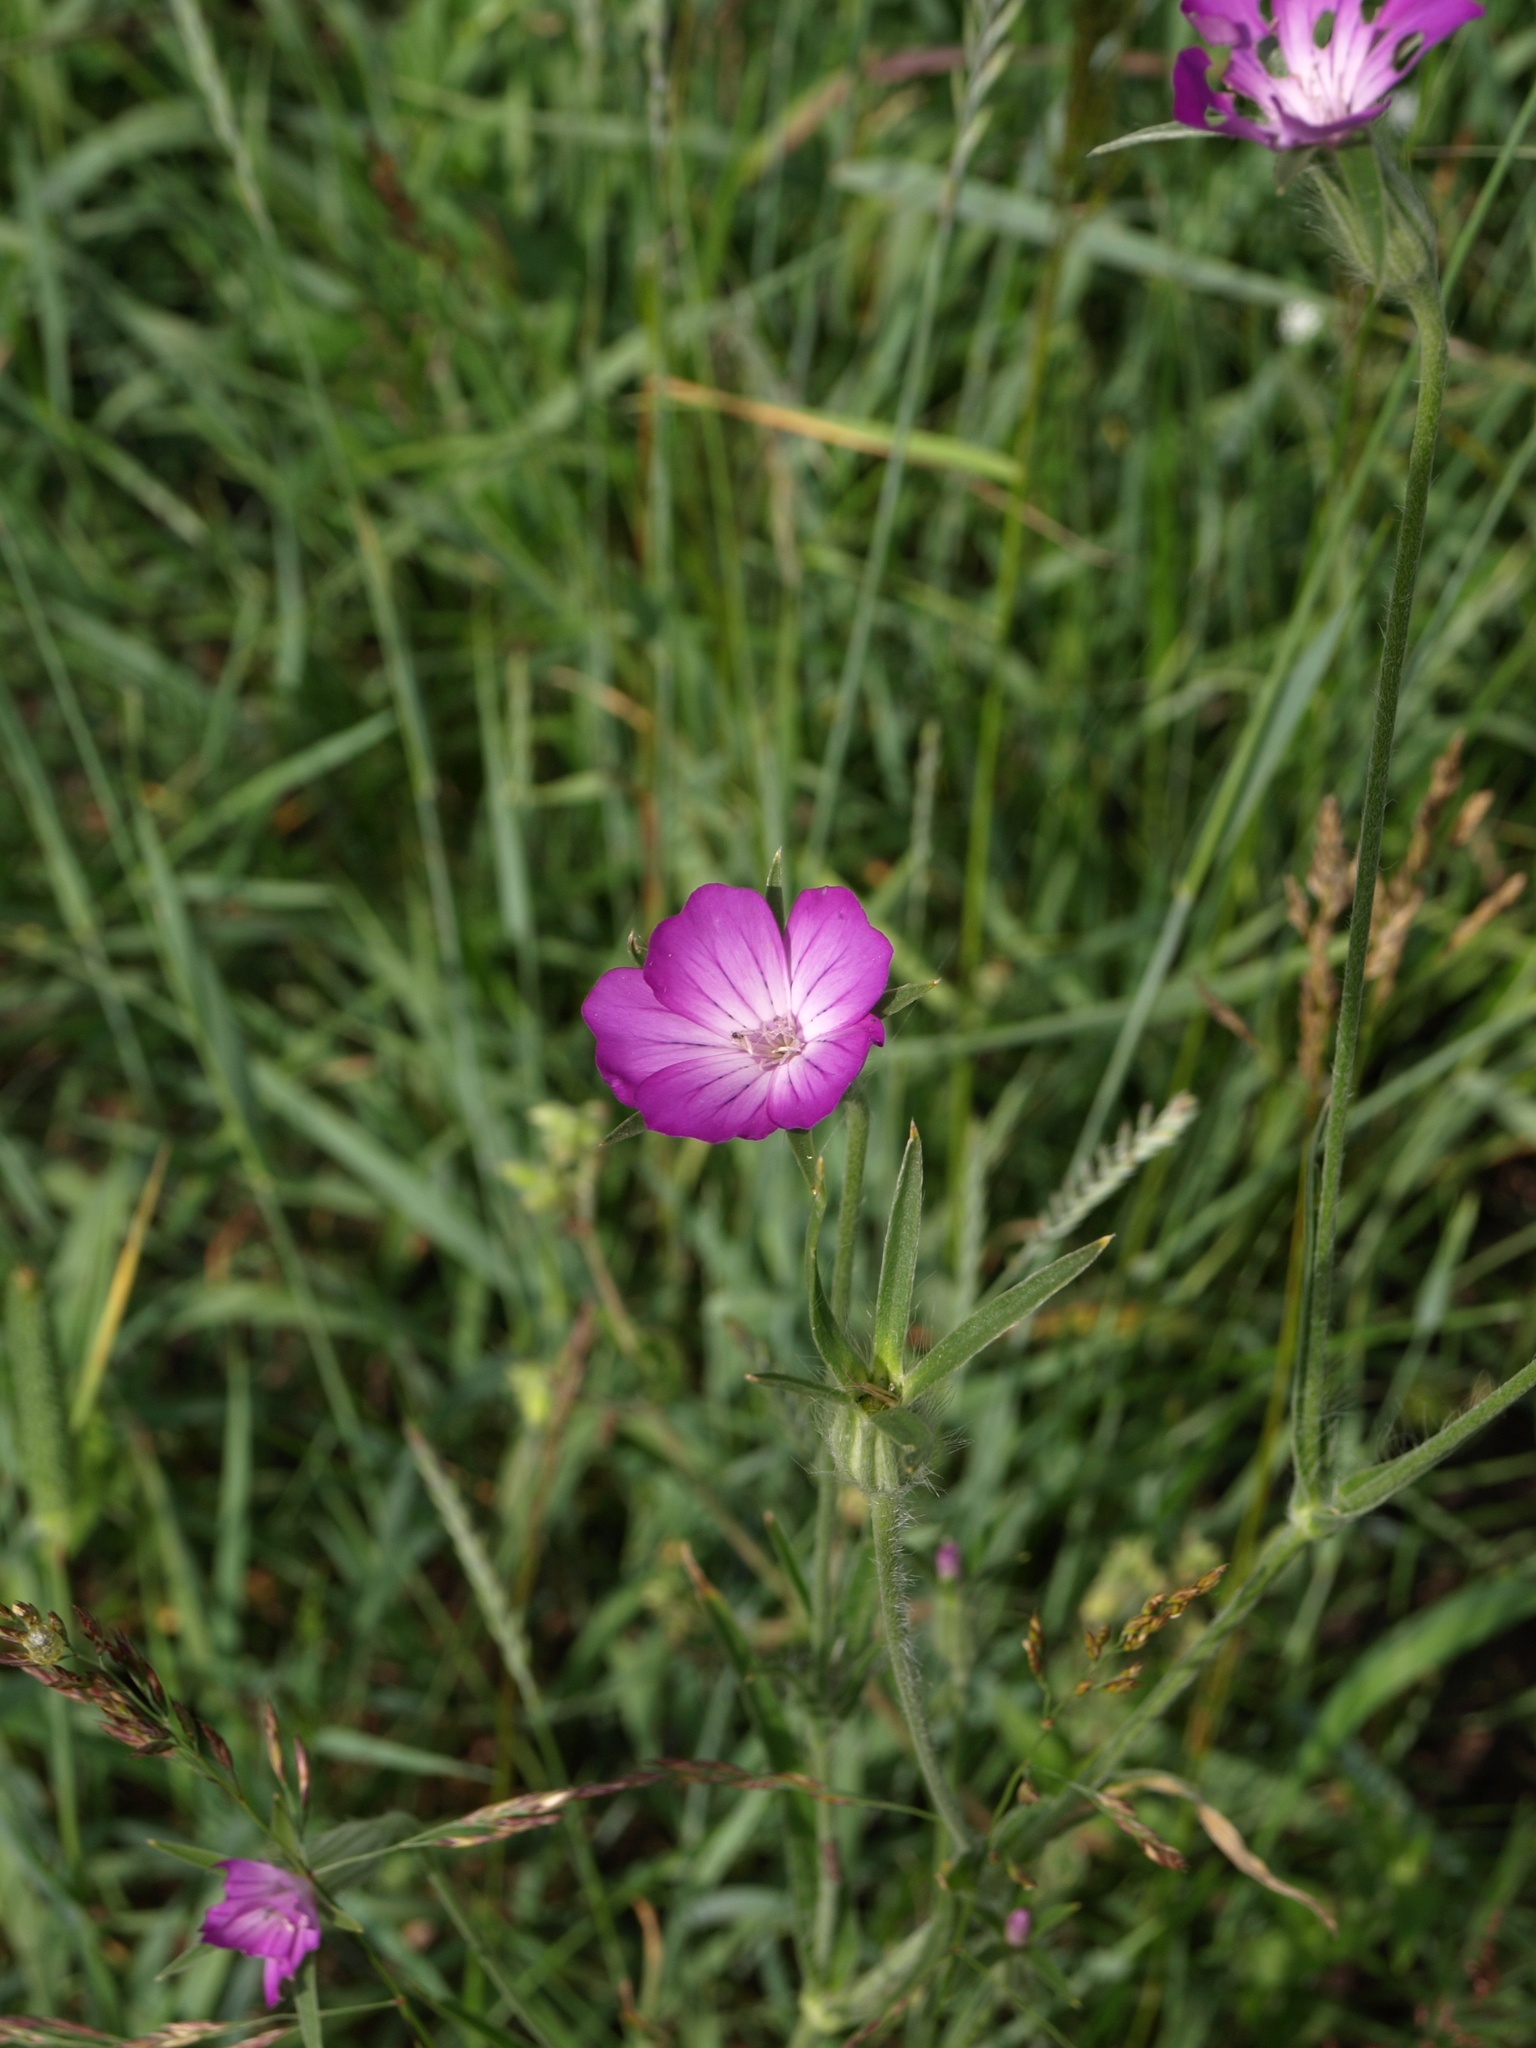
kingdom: Plantae
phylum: Tracheophyta
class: Magnoliopsida
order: Caryophyllales
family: Caryophyllaceae
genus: Agrostemma
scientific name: Agrostemma githago
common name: Common corncockle
